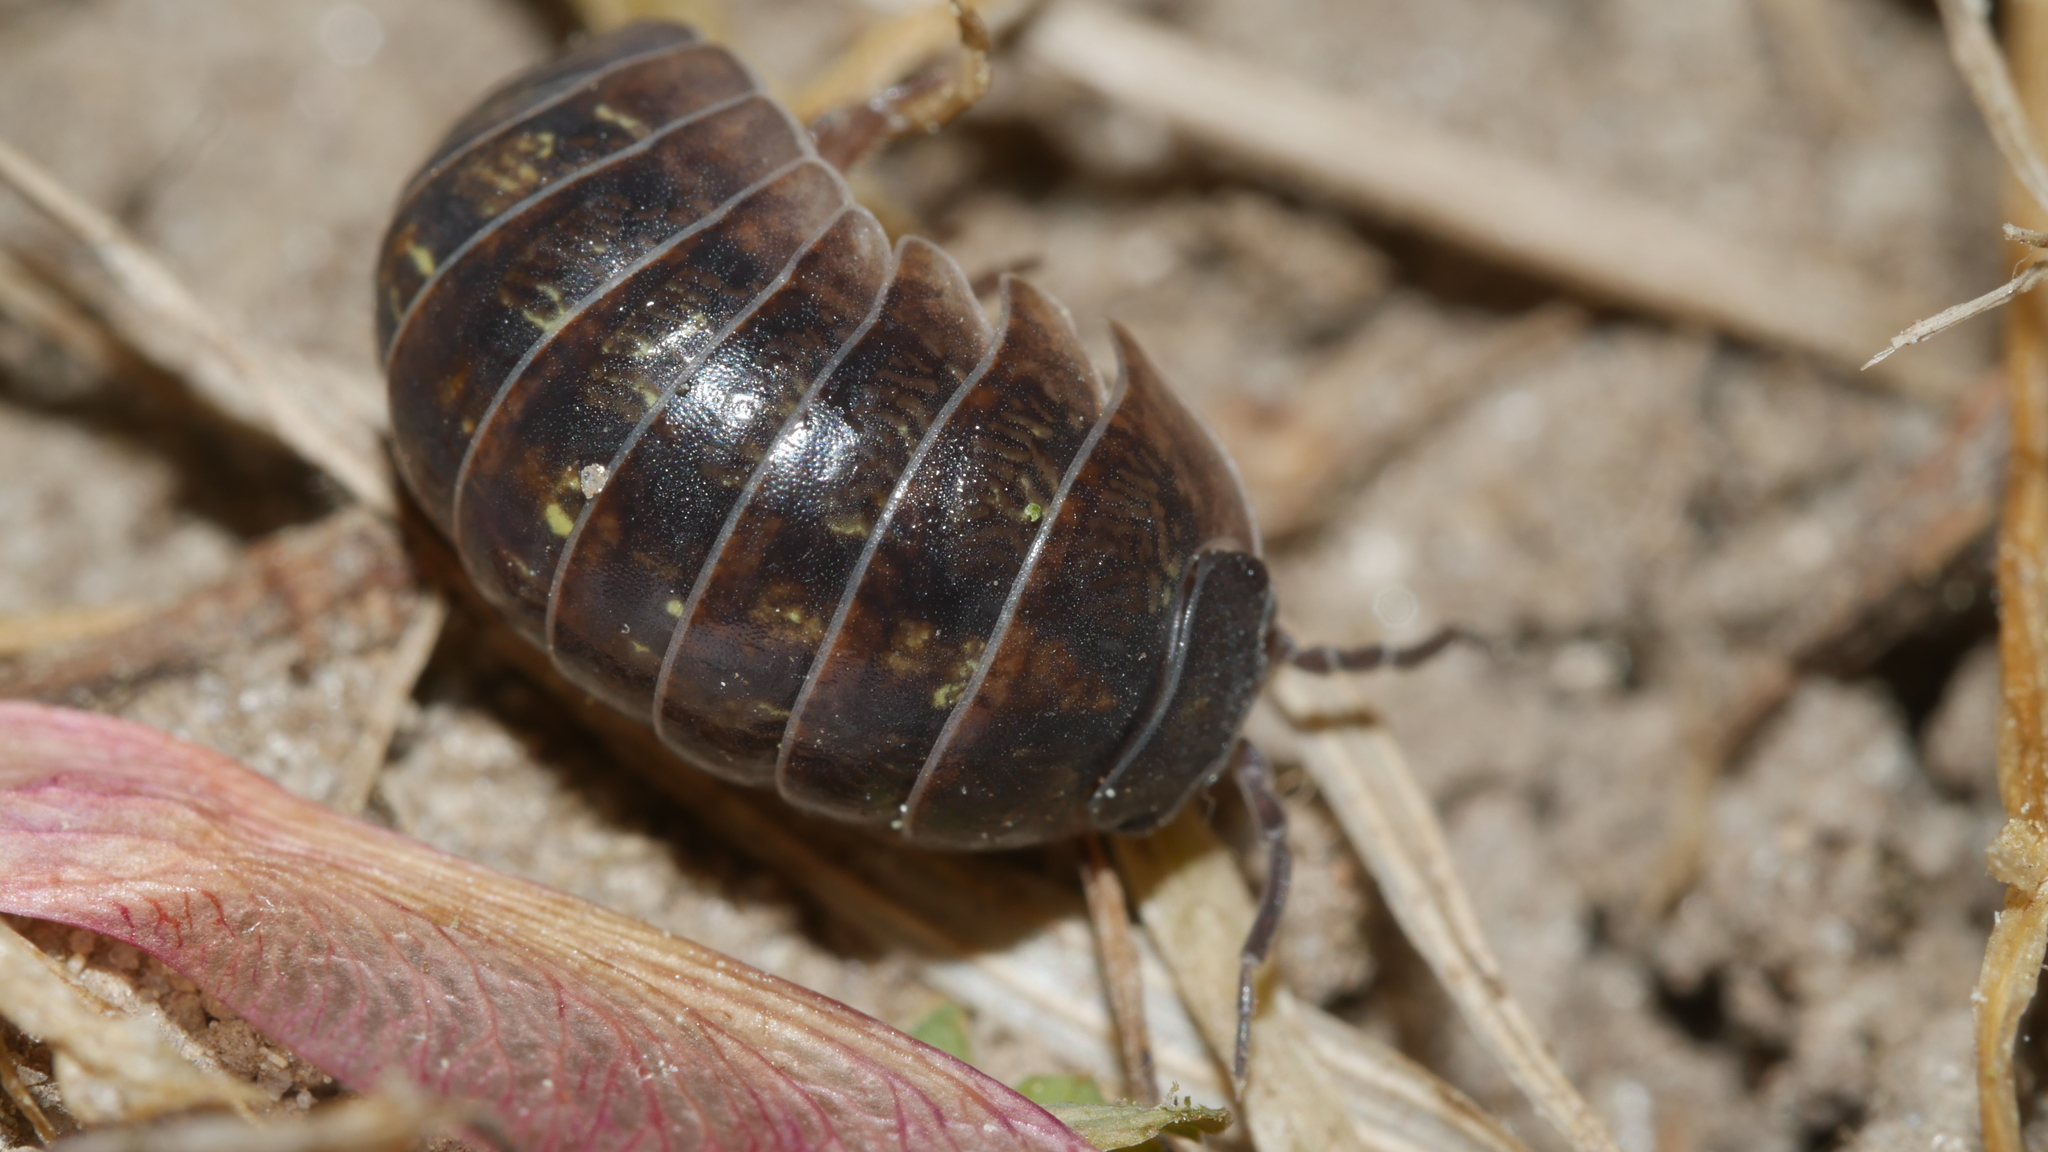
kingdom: Animalia
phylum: Arthropoda
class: Malacostraca
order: Isopoda
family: Armadillidiidae
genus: Armadillidium
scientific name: Armadillidium vulgare
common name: Common pill woodlouse
